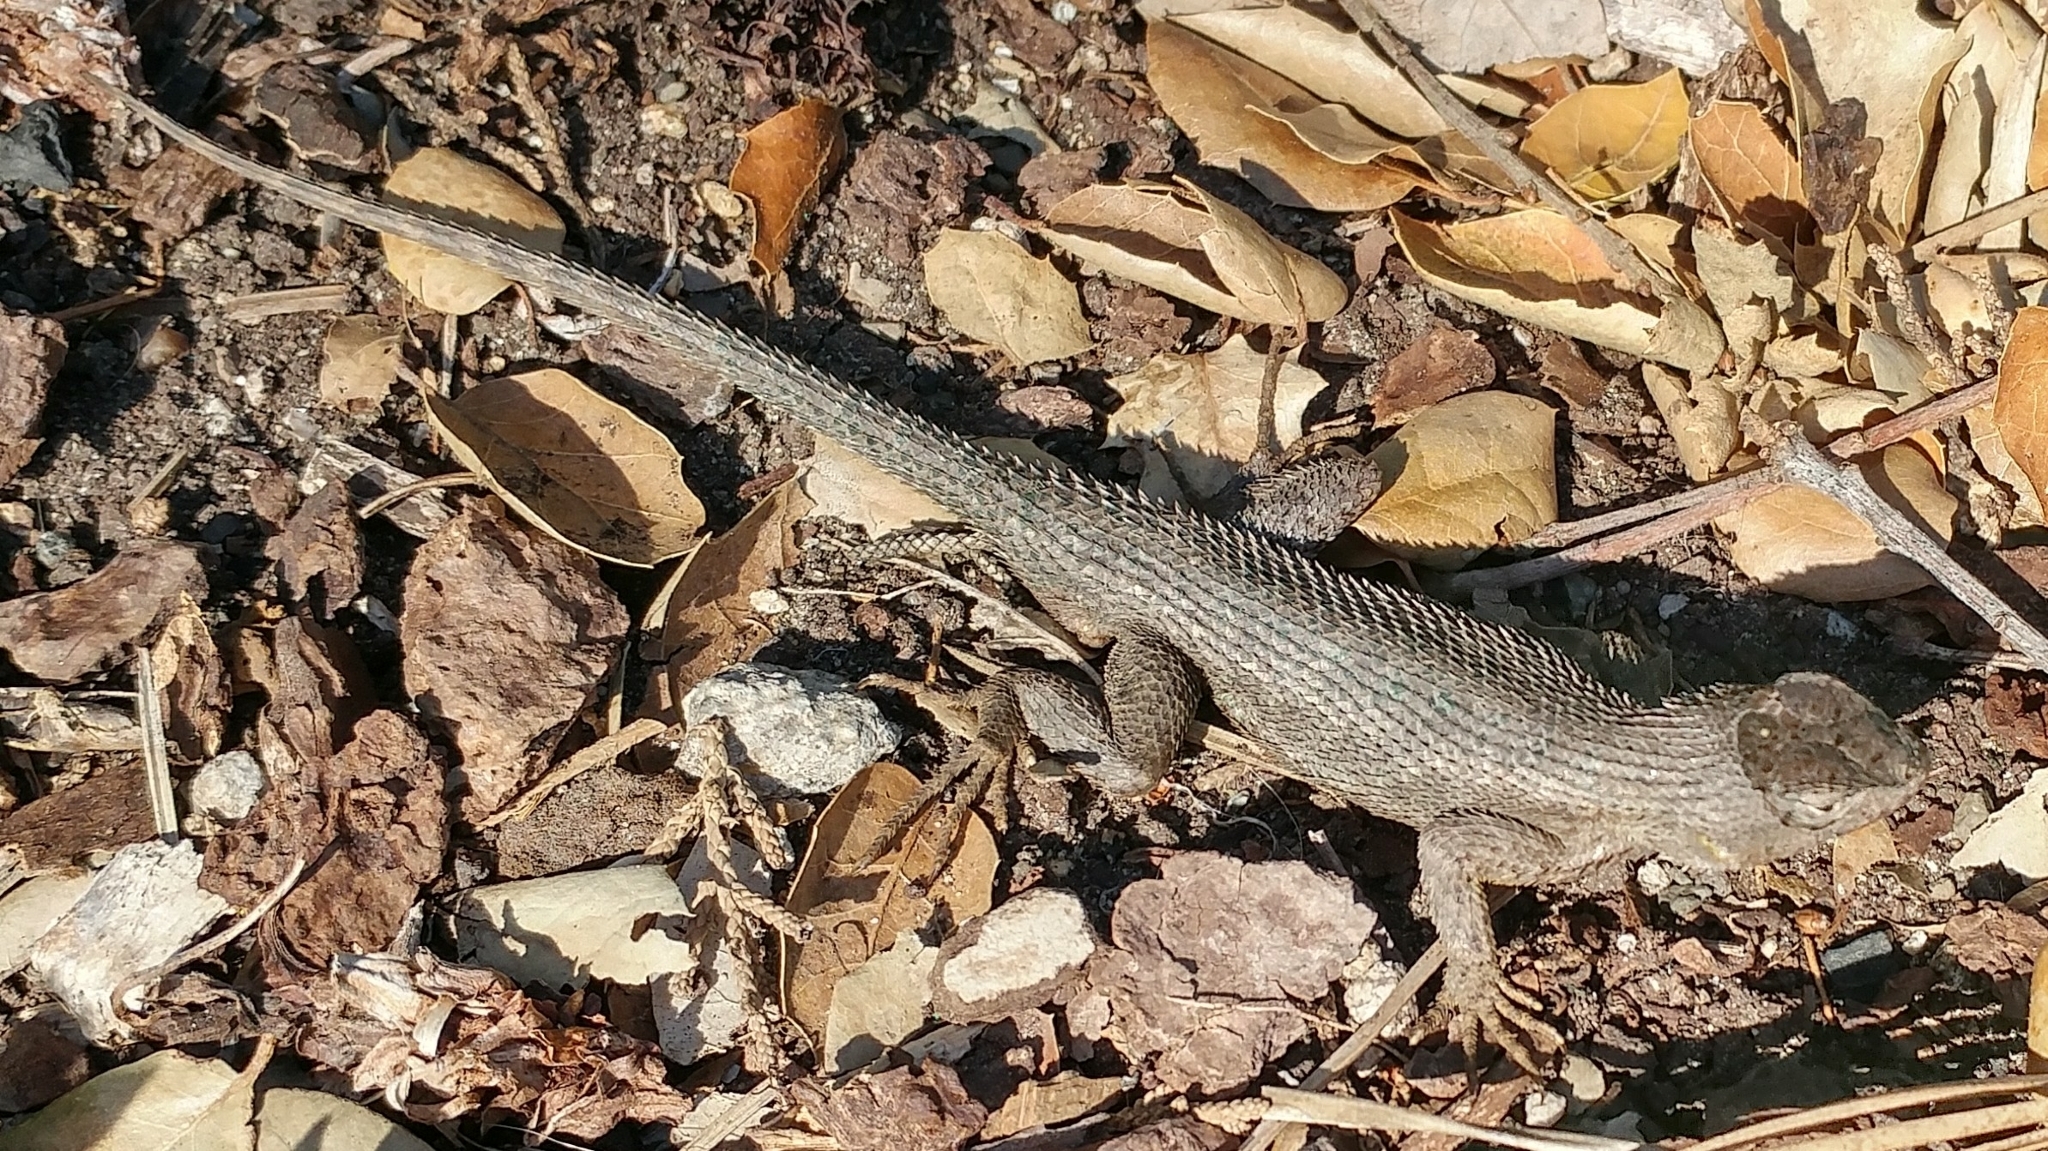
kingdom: Animalia
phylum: Chordata
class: Squamata
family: Phrynosomatidae
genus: Sceloporus
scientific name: Sceloporus occidentalis
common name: Western fence lizard
